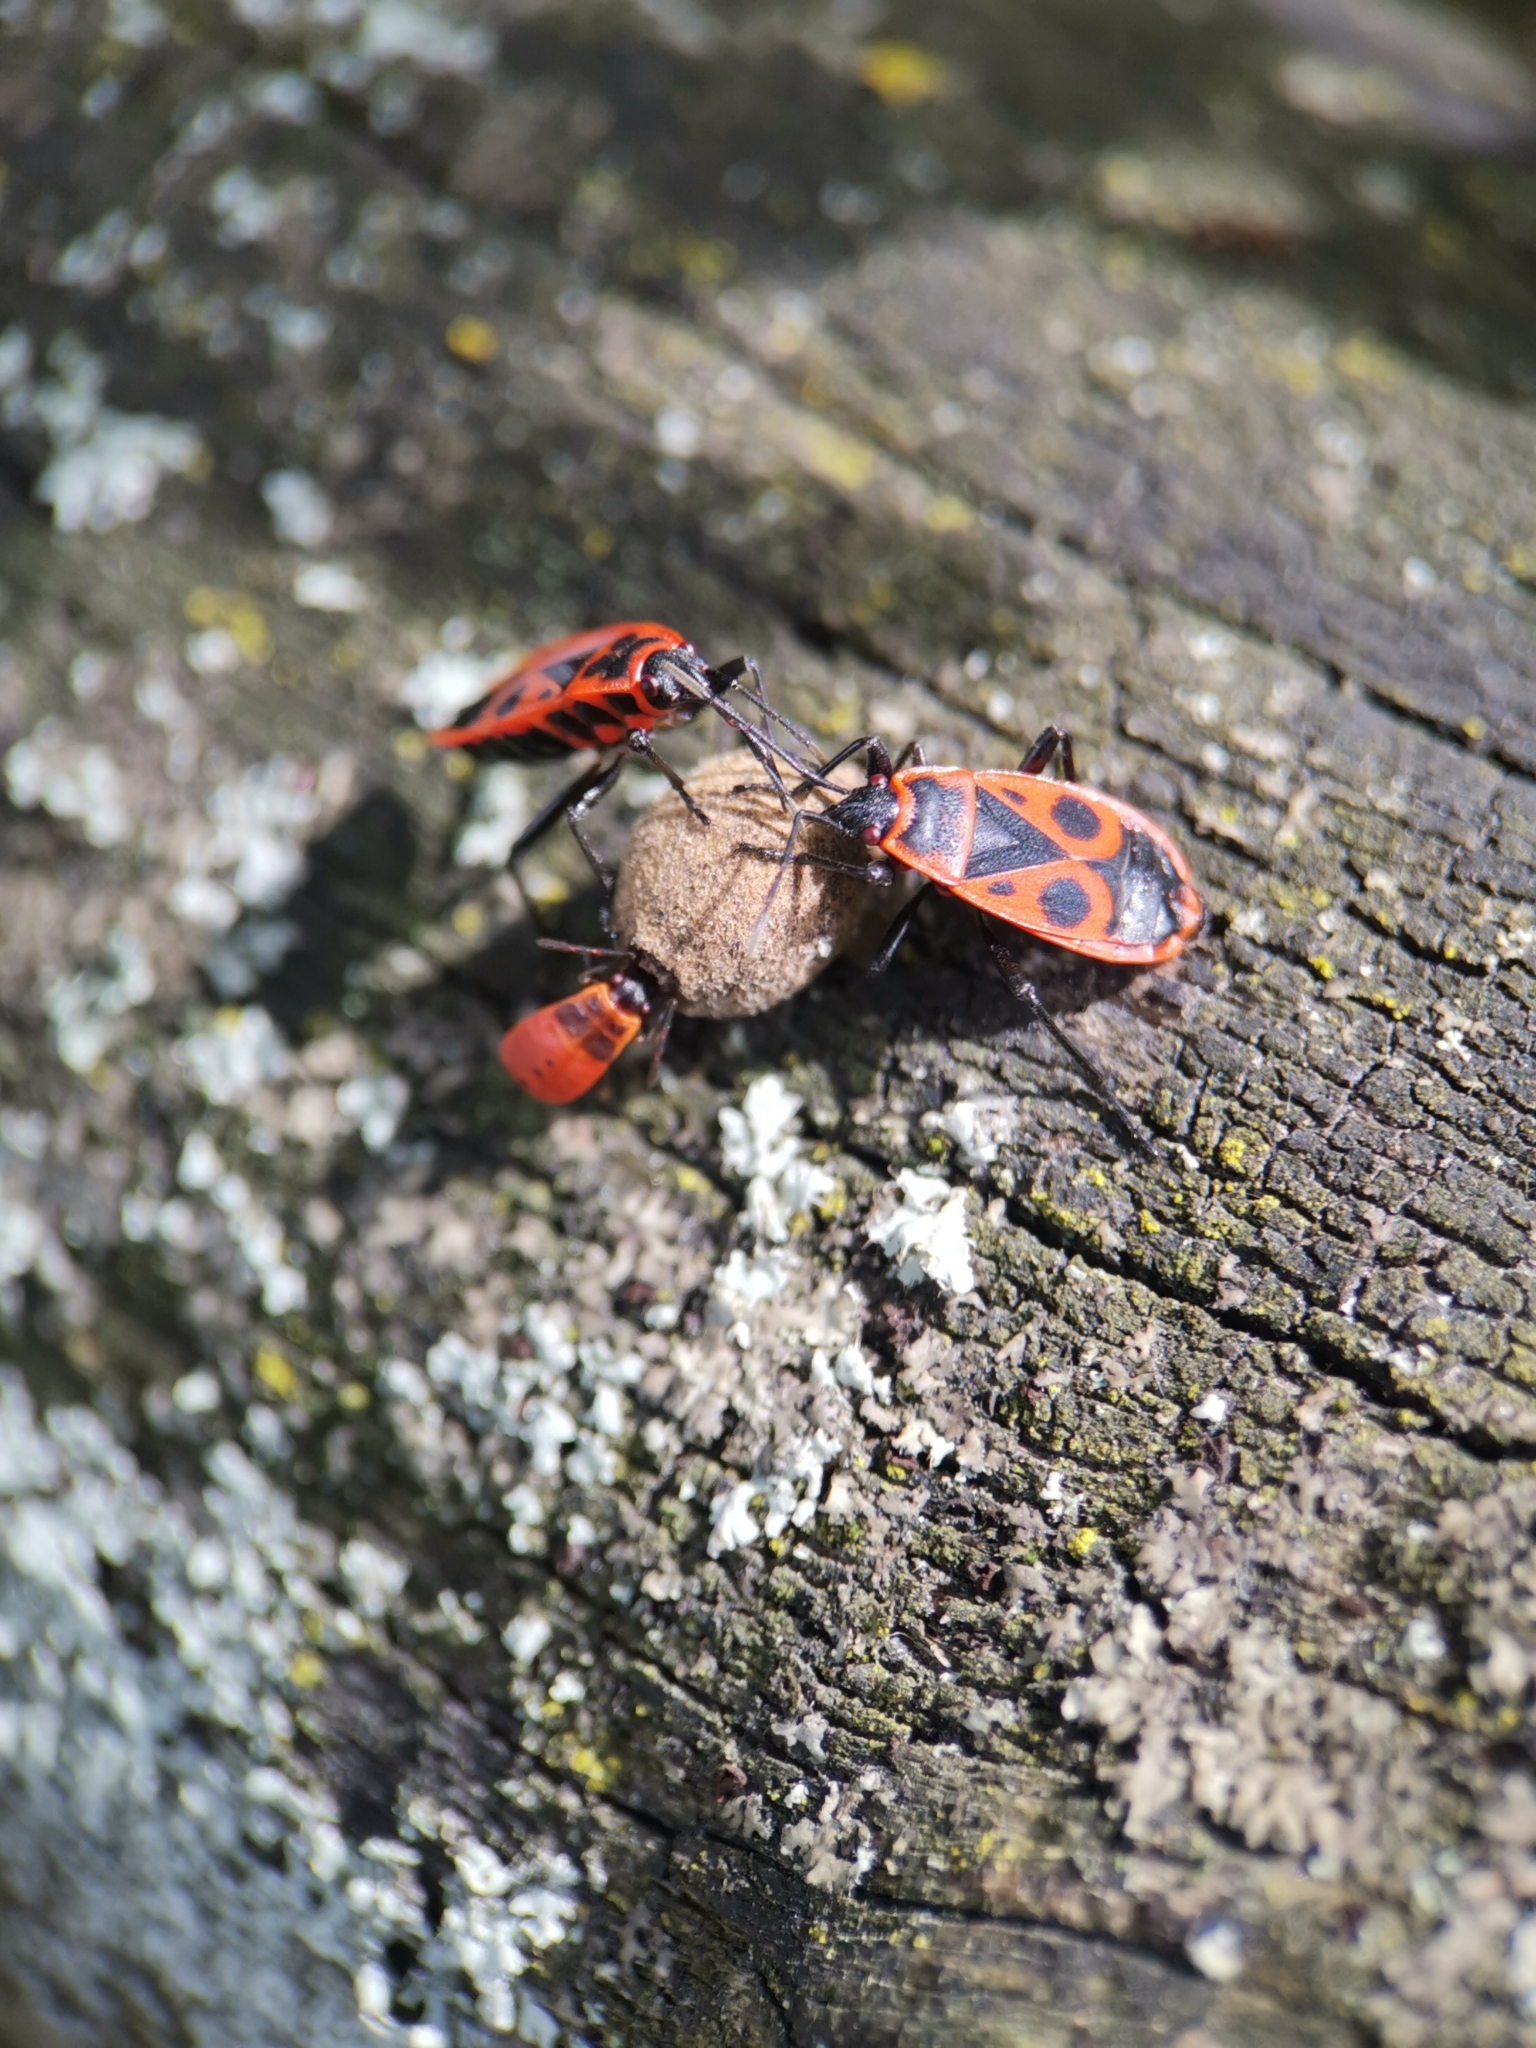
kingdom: Animalia
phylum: Arthropoda
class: Insecta
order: Hemiptera
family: Pyrrhocoridae
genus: Pyrrhocoris
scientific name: Pyrrhocoris apterus
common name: Firebug
